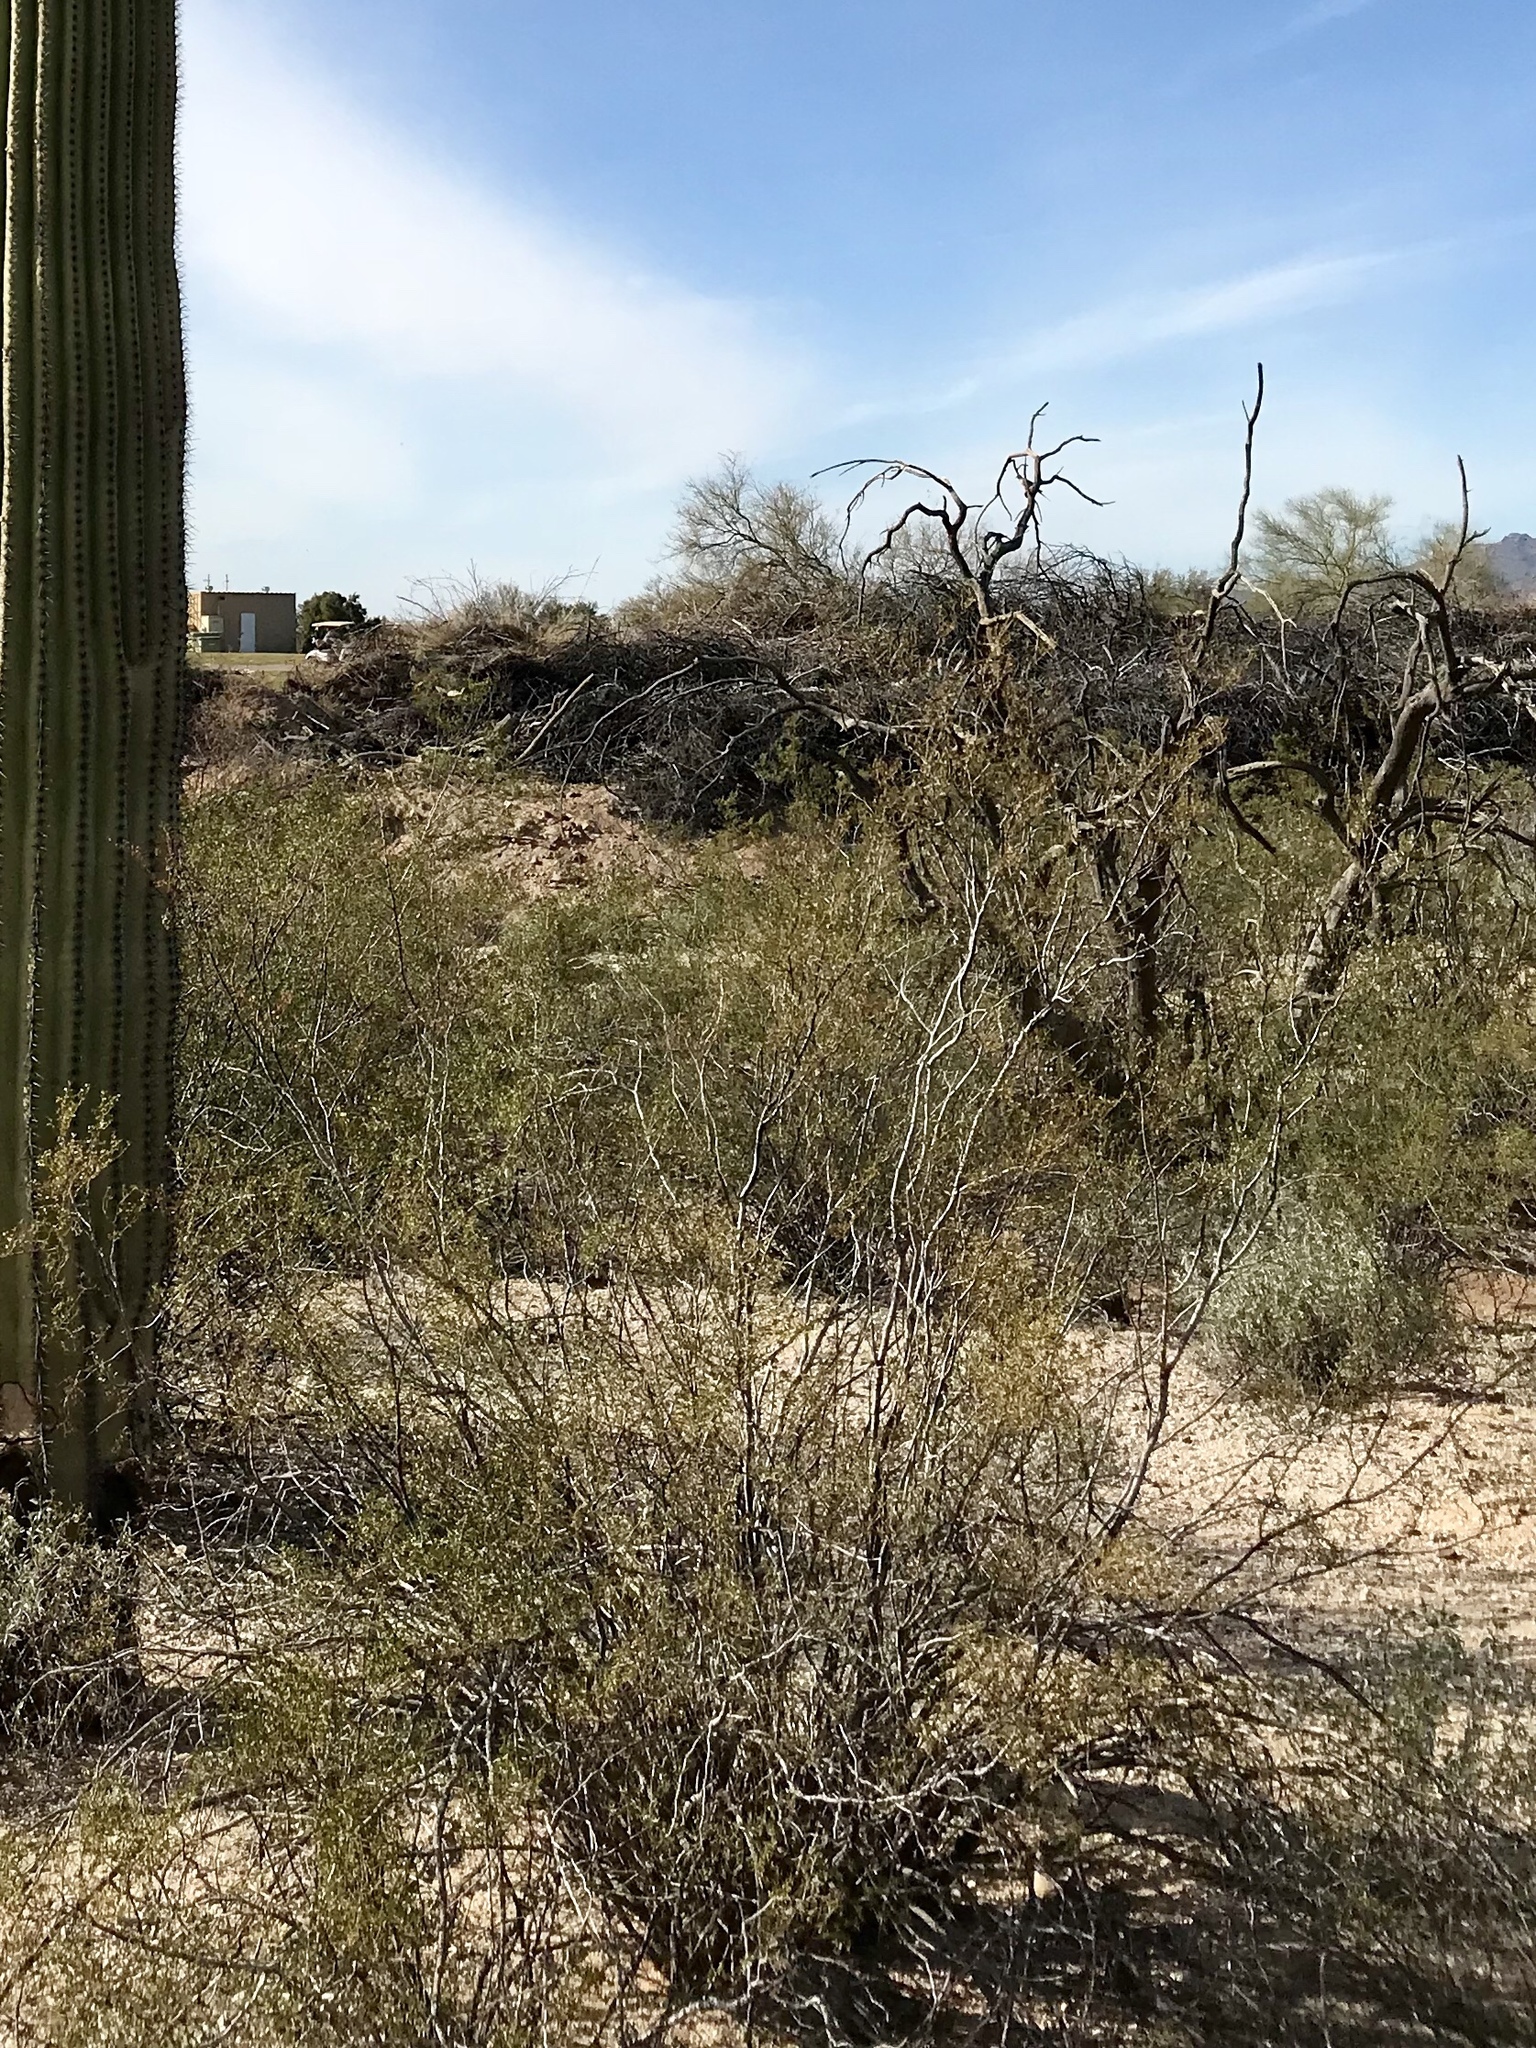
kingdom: Plantae
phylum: Tracheophyta
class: Magnoliopsida
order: Zygophyllales
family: Zygophyllaceae
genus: Larrea
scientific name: Larrea tridentata
